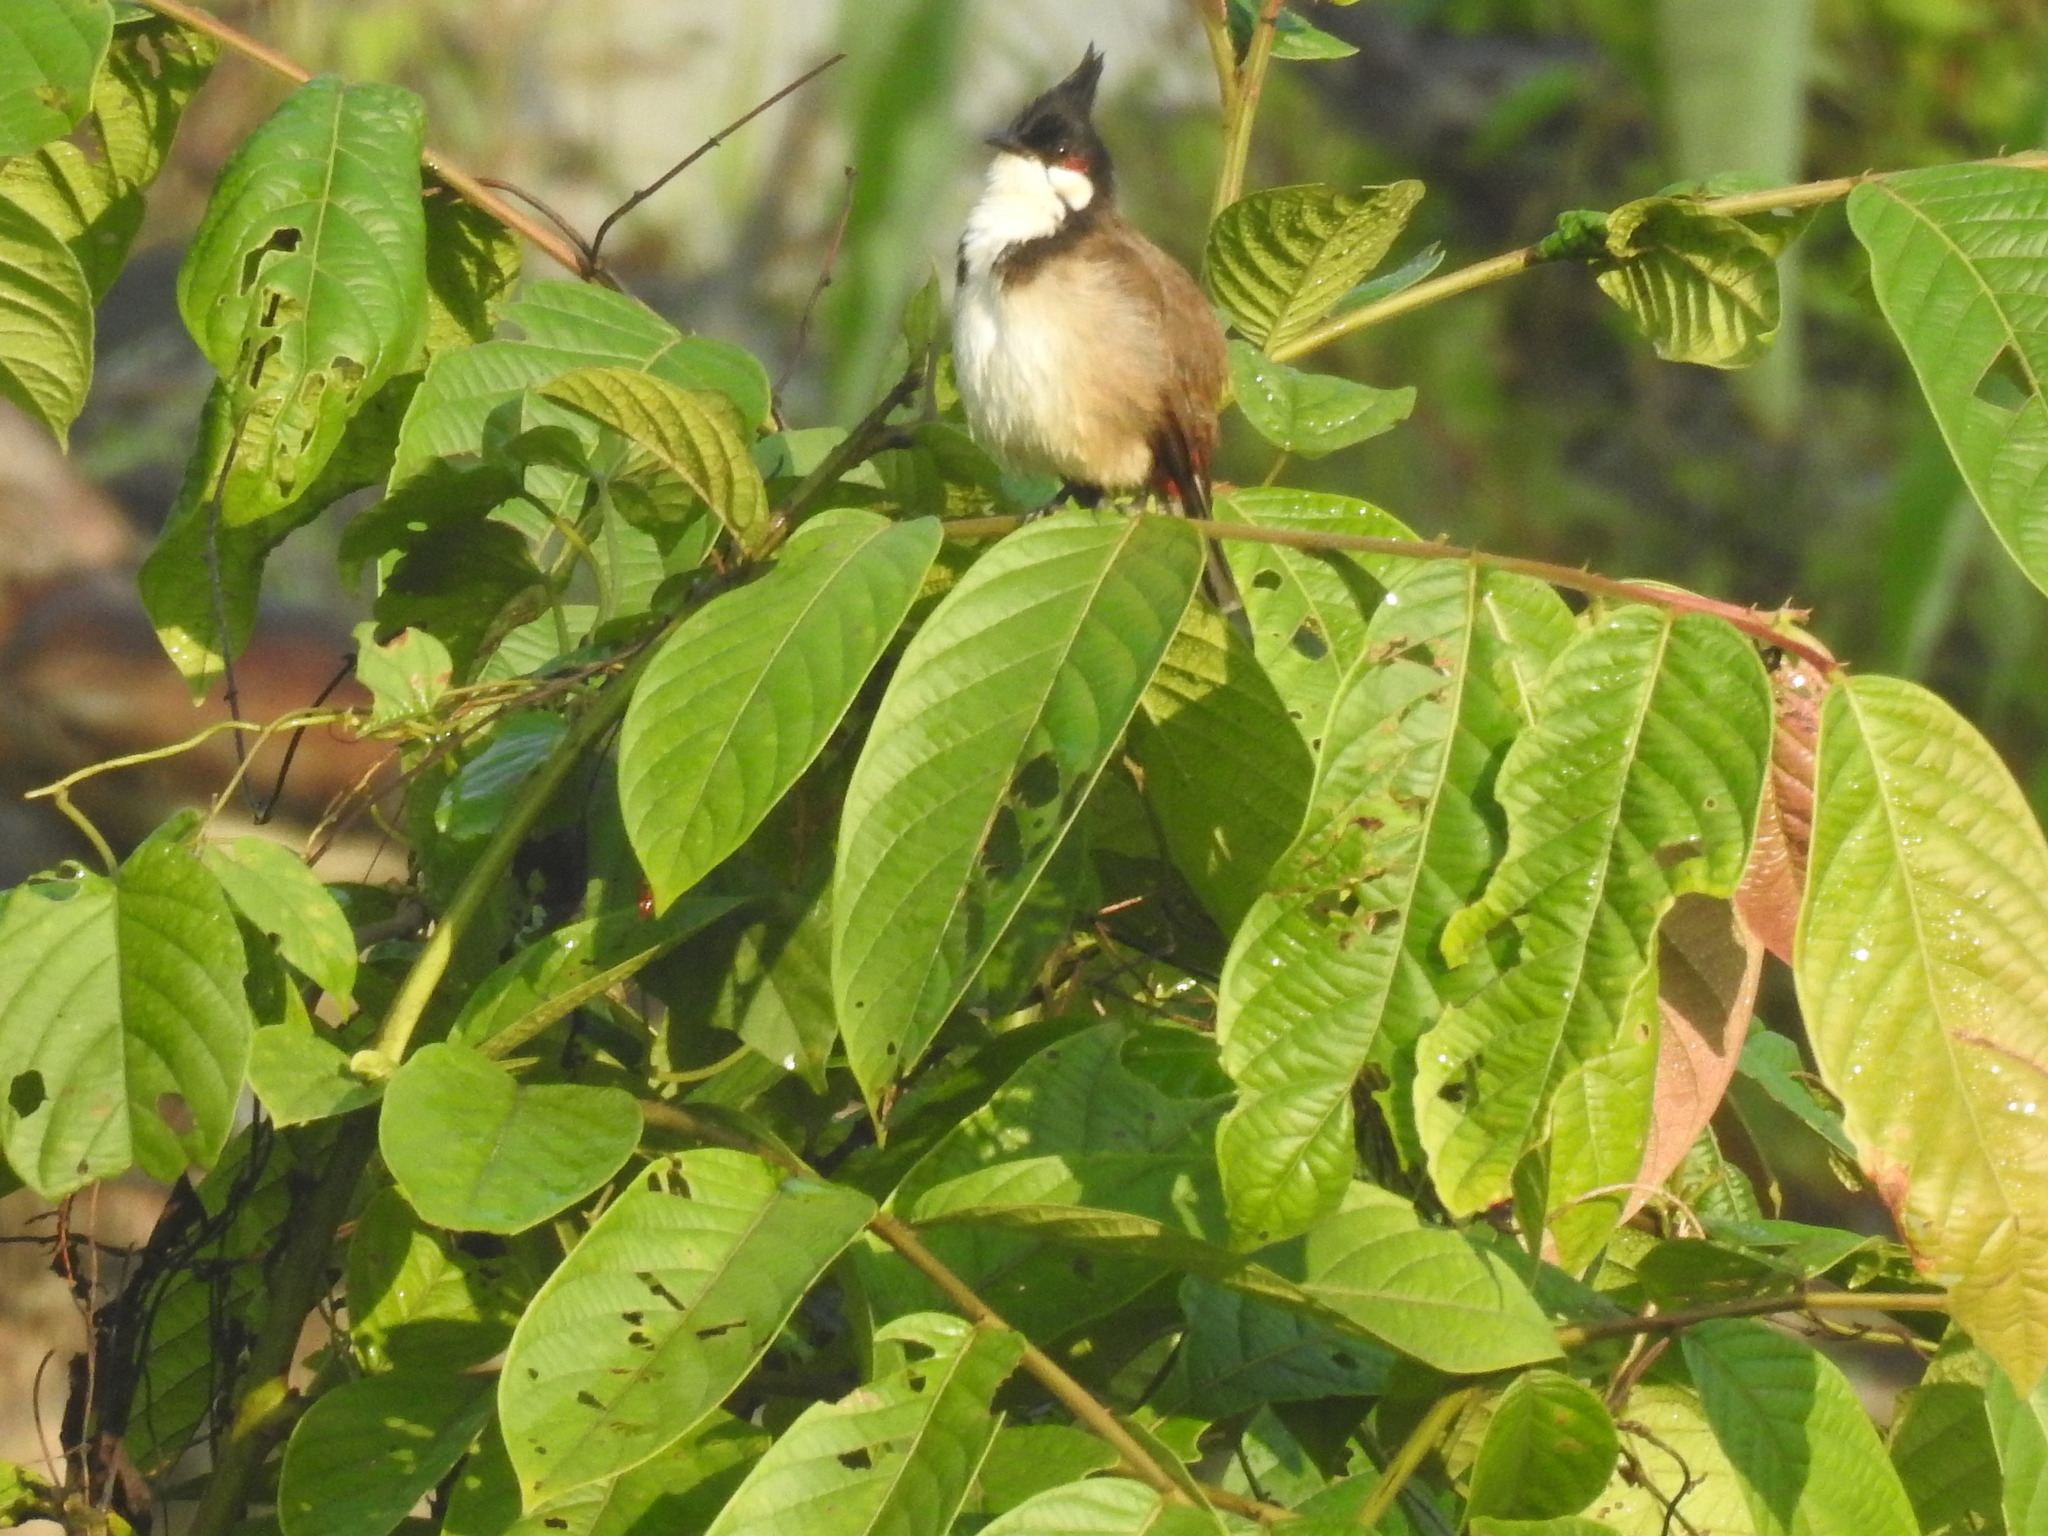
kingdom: Animalia
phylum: Chordata
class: Aves
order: Passeriformes
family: Pycnonotidae
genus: Pycnonotus
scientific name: Pycnonotus jocosus
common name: Red-whiskered bulbul
